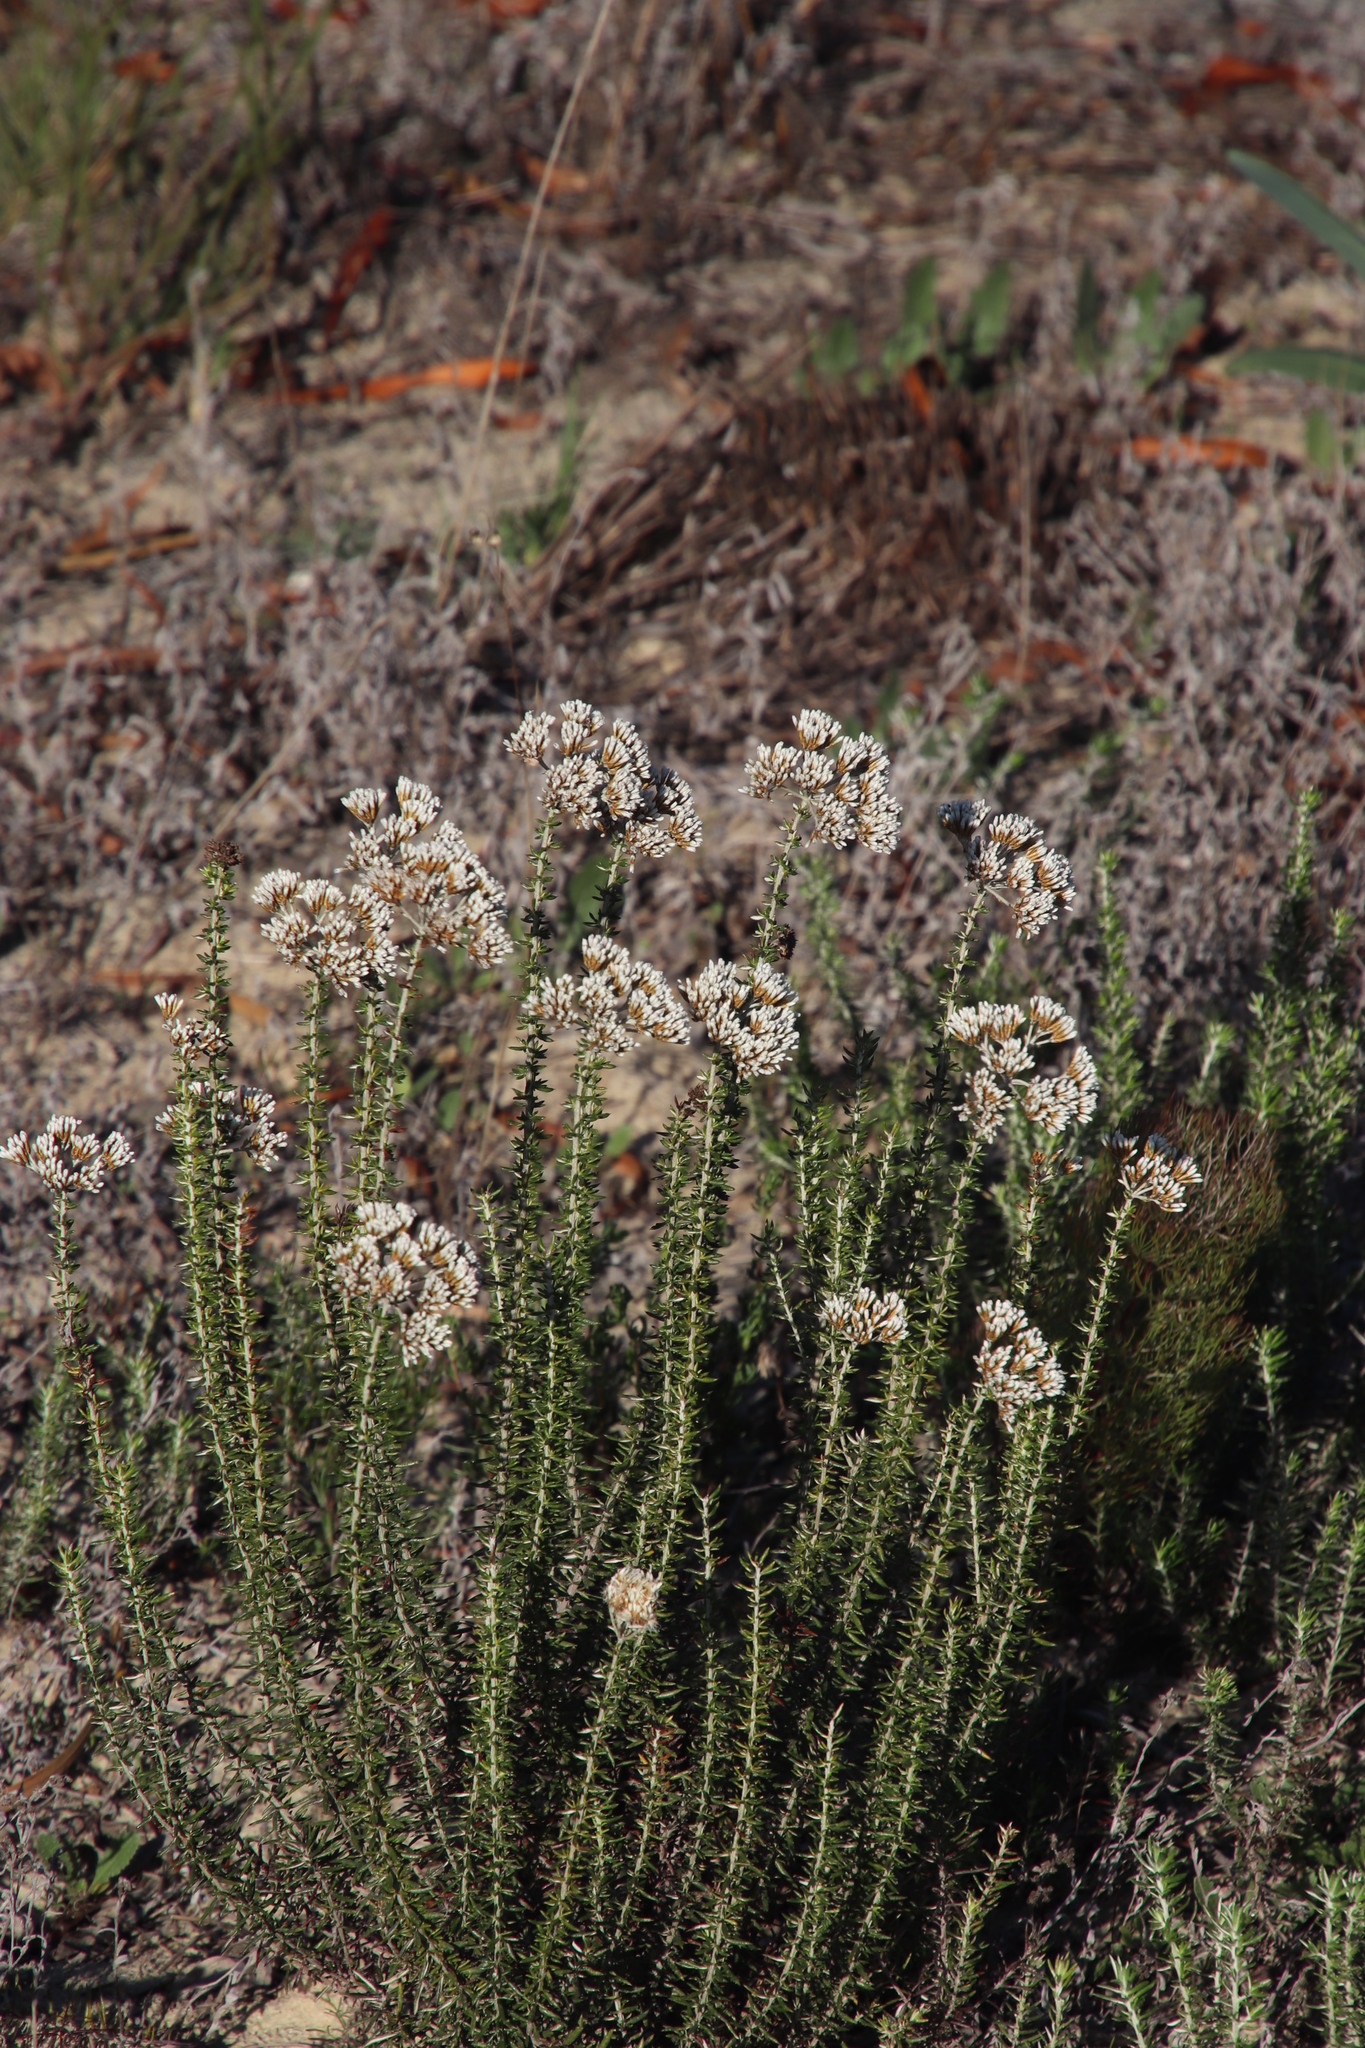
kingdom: Plantae
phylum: Tracheophyta
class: Magnoliopsida
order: Asterales
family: Asteraceae
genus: Metalasia
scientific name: Metalasia densa
